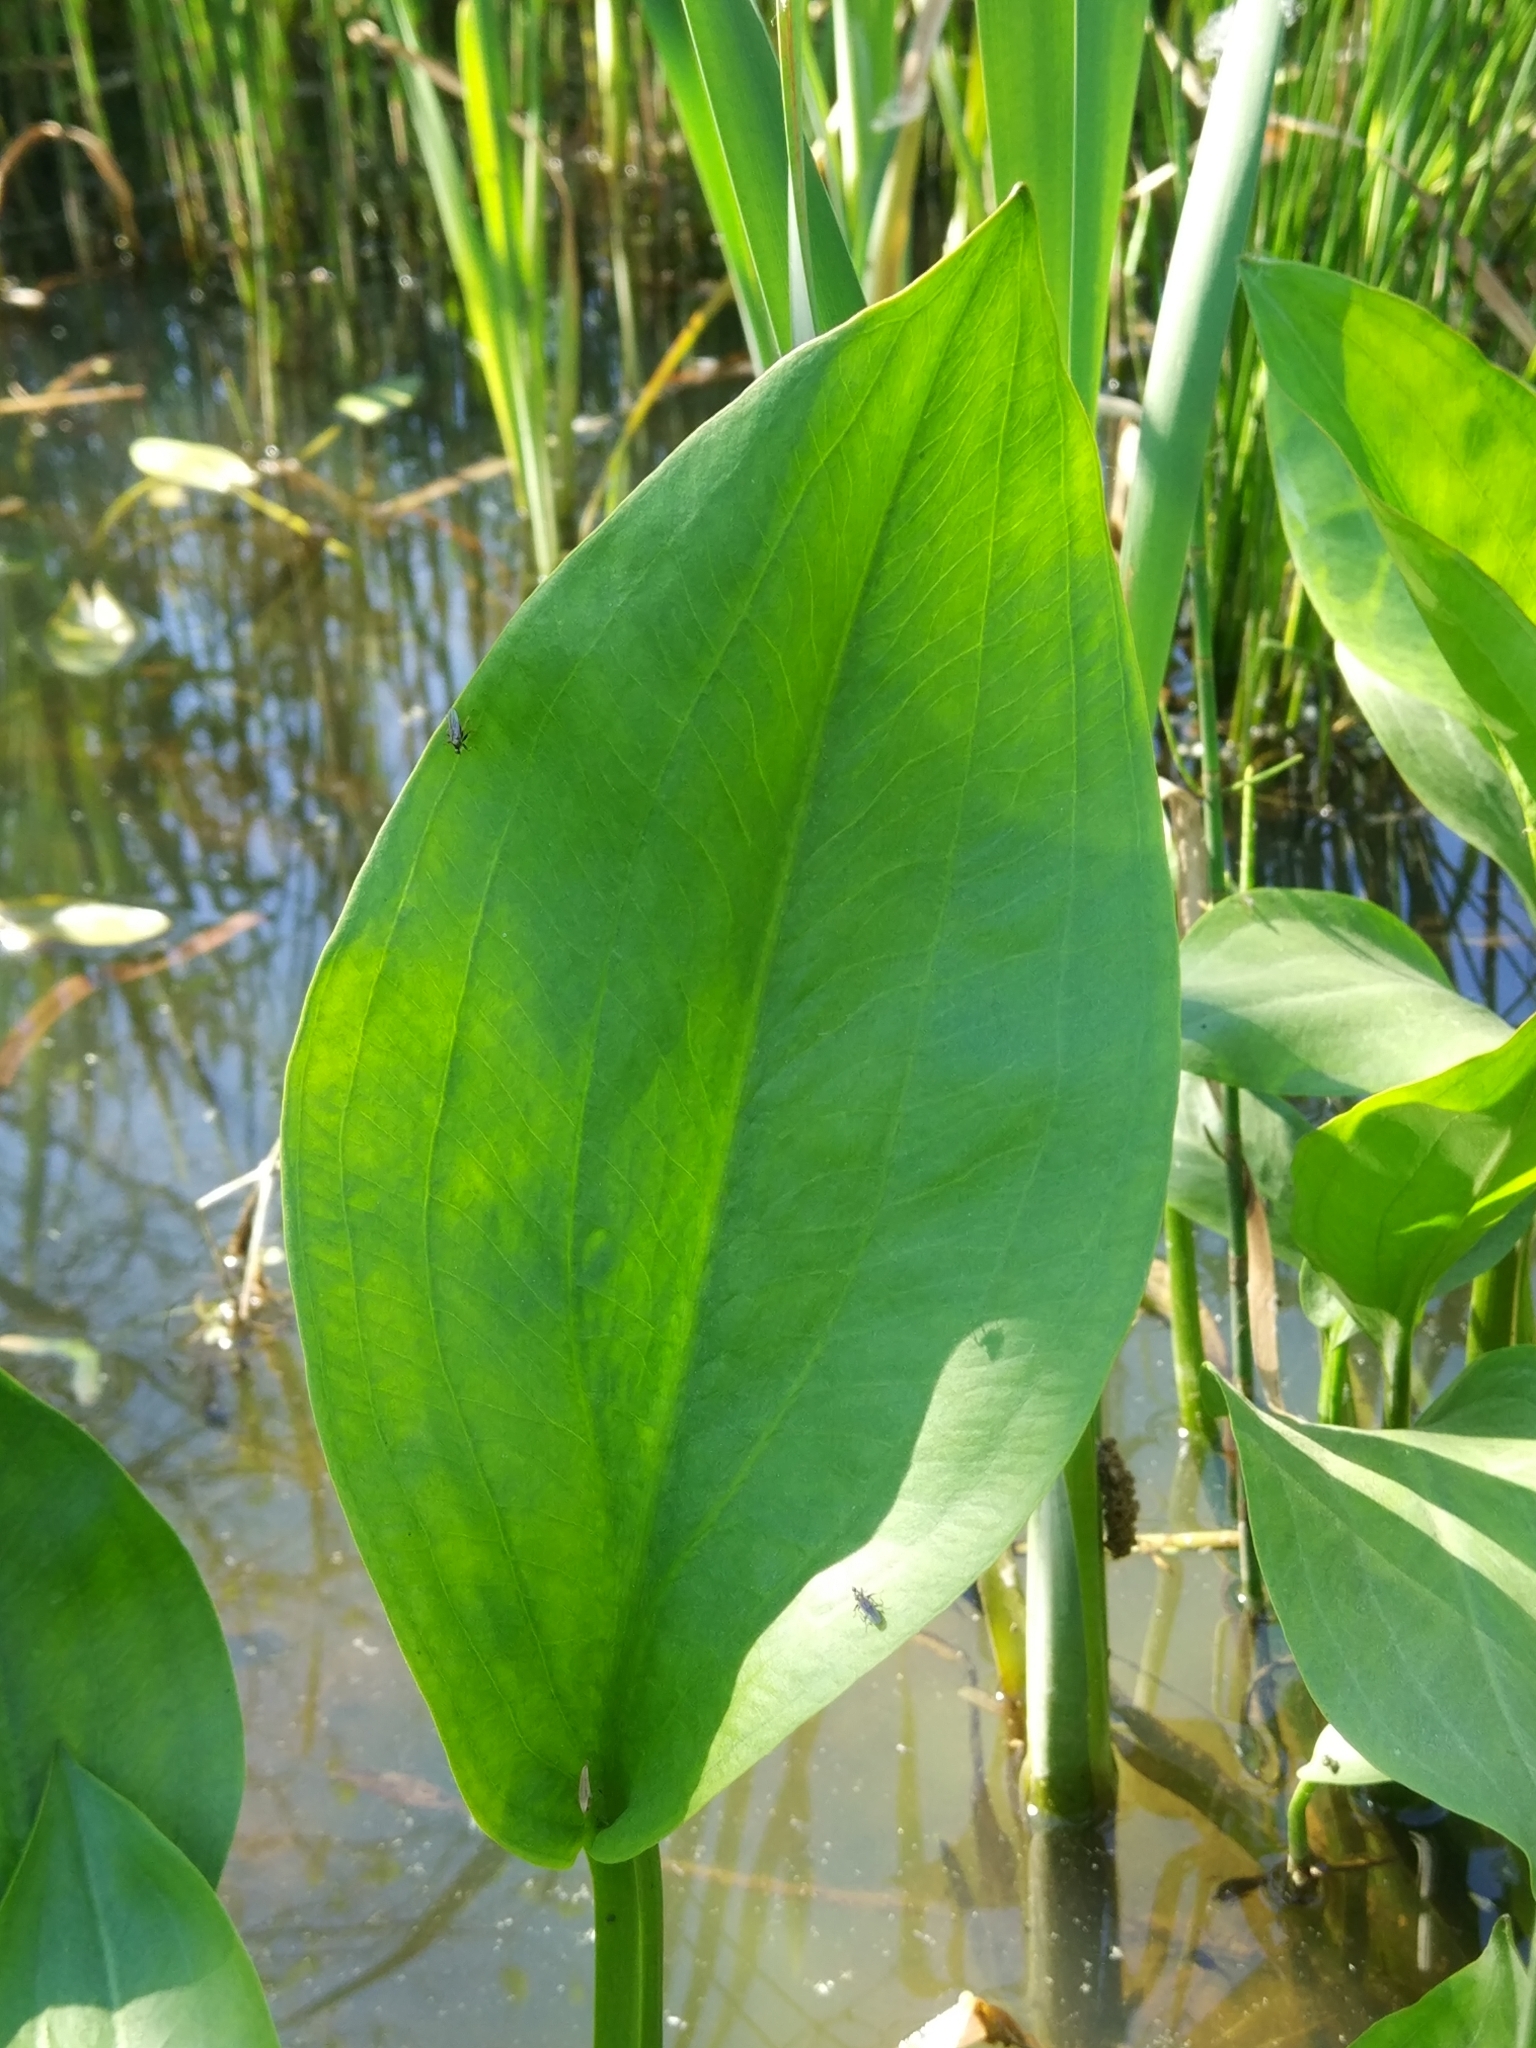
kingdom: Plantae
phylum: Tracheophyta
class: Liliopsida
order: Alismatales
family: Alismataceae
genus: Alisma
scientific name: Alisma plantago-aquatica
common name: Water-plantain
